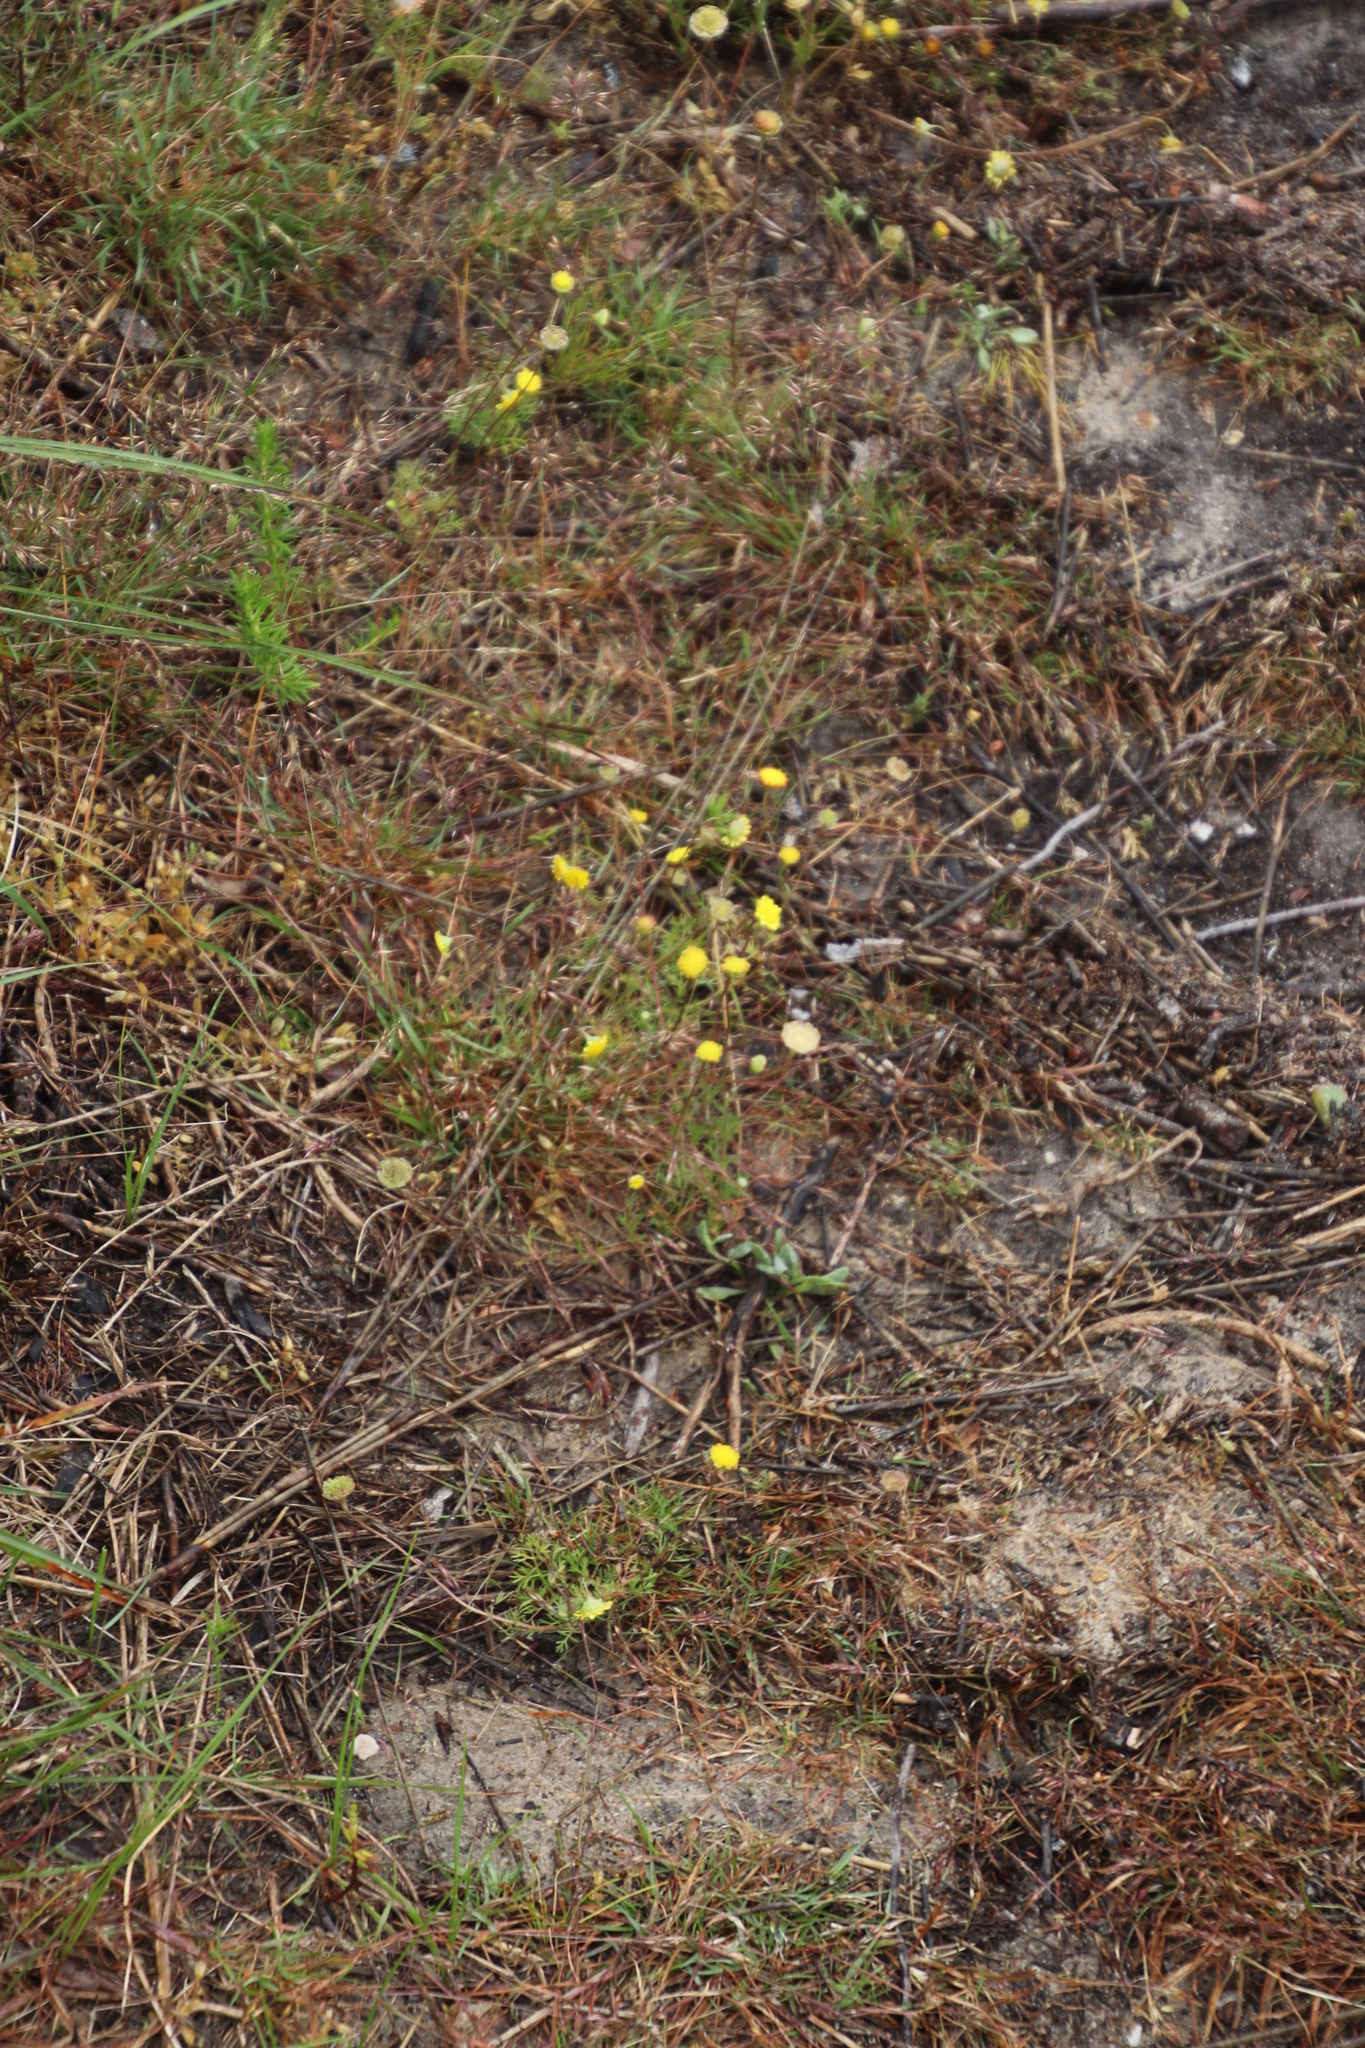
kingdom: Plantae
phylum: Tracheophyta
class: Magnoliopsida
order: Asterales
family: Asteraceae
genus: Cotula
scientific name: Cotula pruinosa
